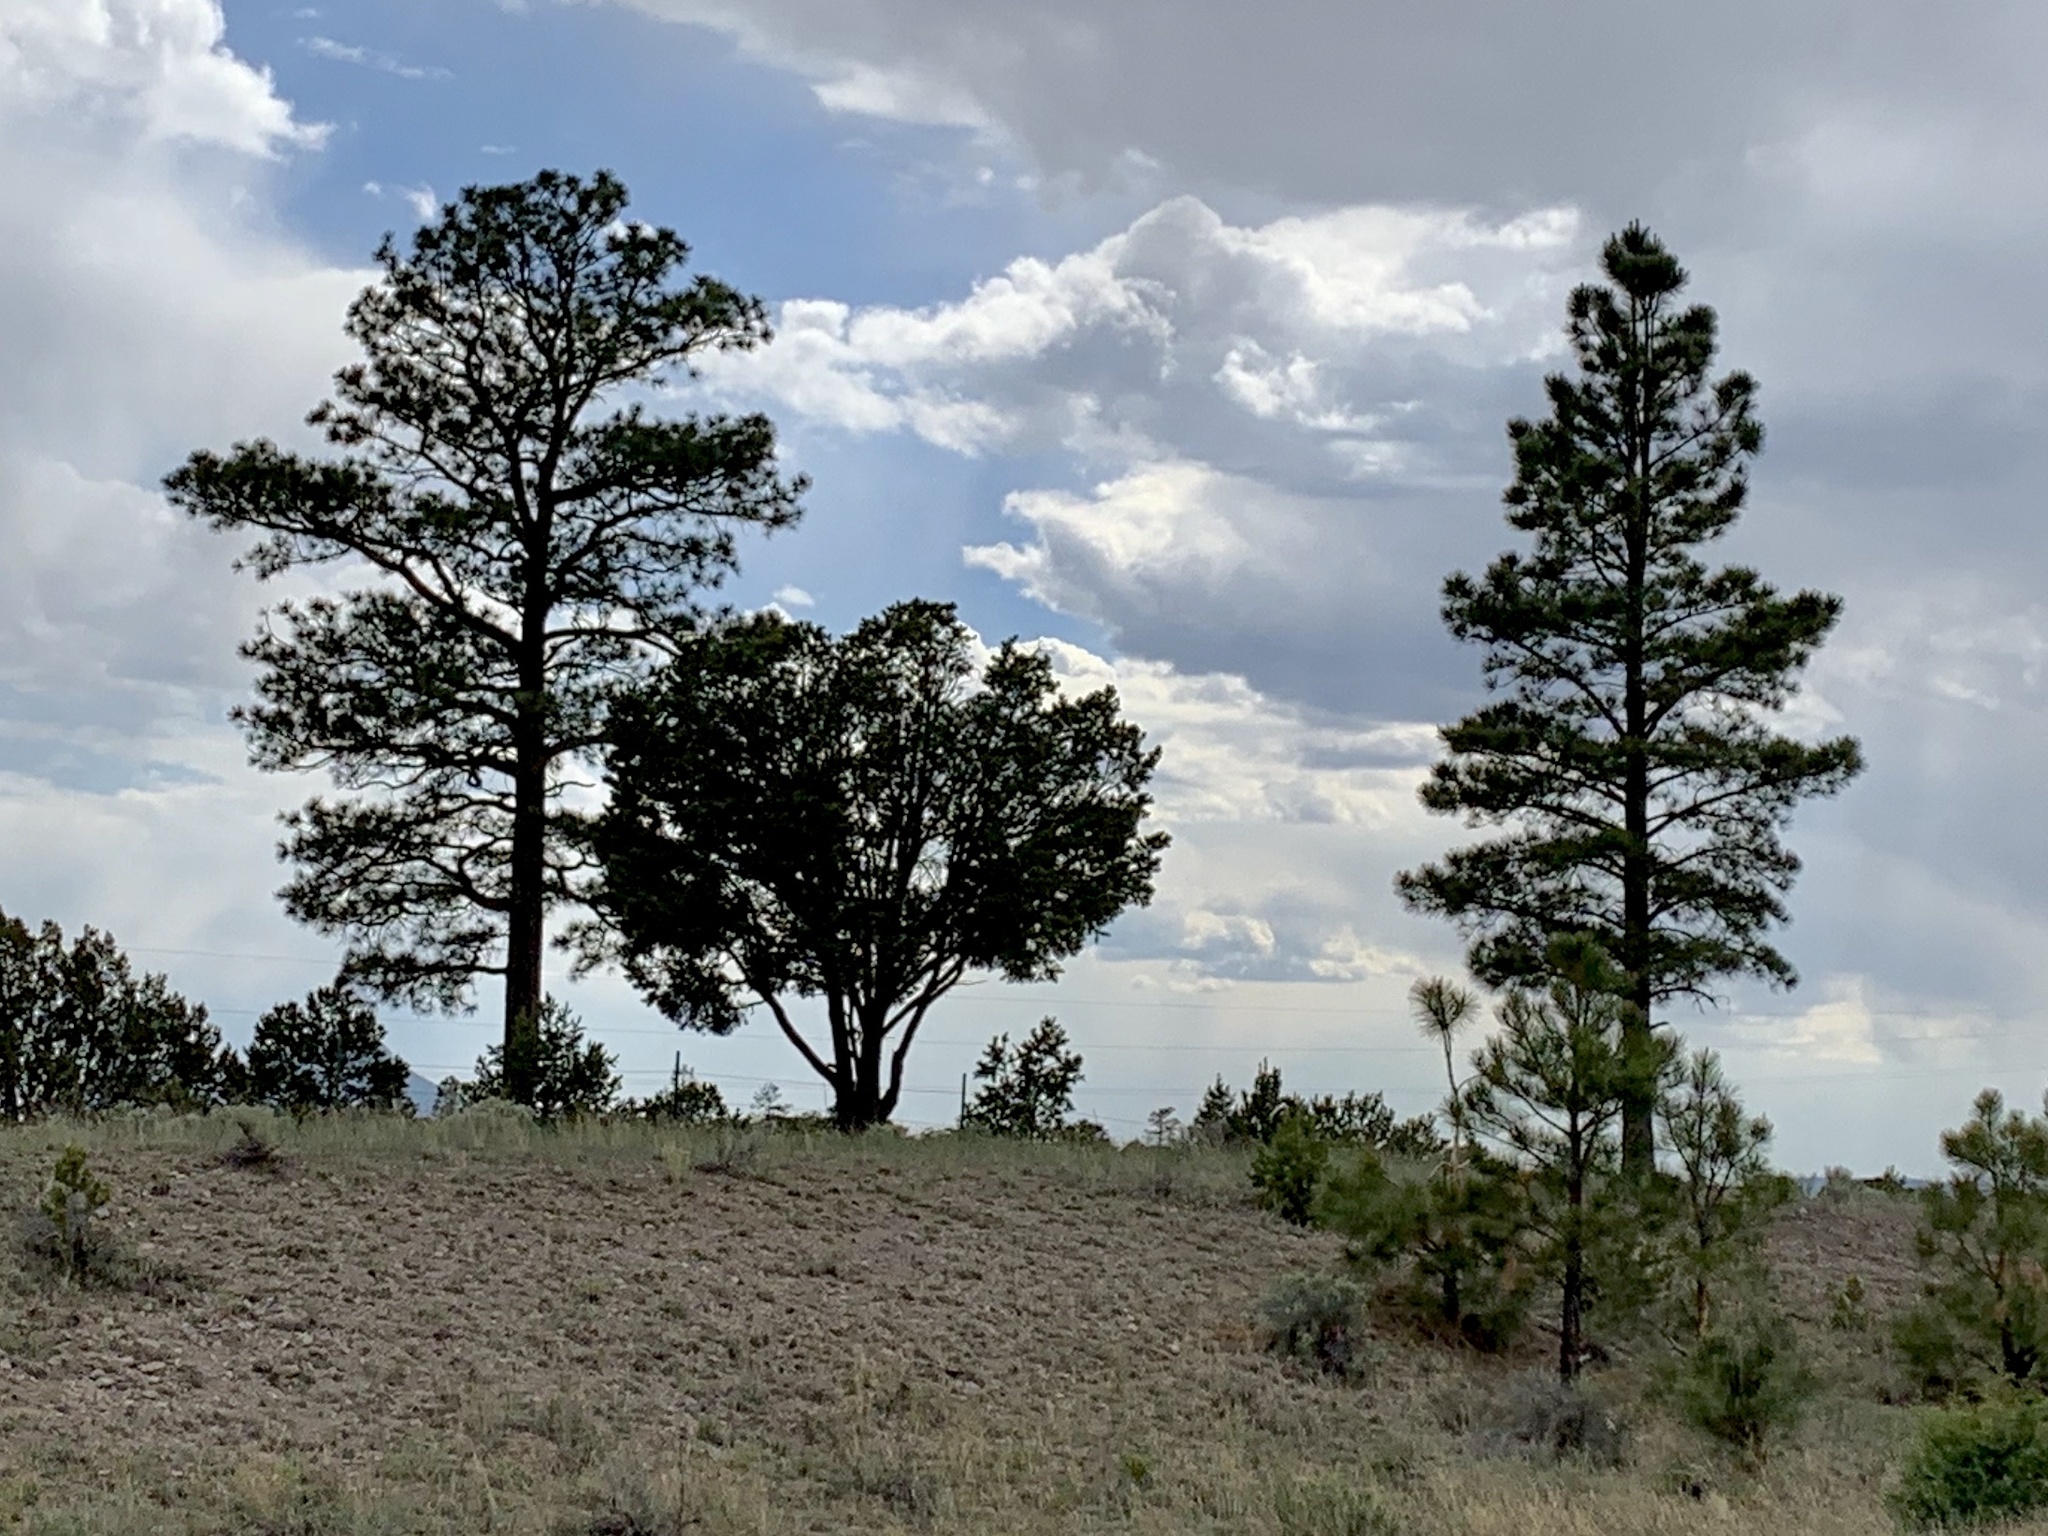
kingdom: Plantae
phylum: Tracheophyta
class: Pinopsida
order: Pinales
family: Pinaceae
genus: Pinus
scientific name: Pinus ponderosa
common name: Western yellow-pine
